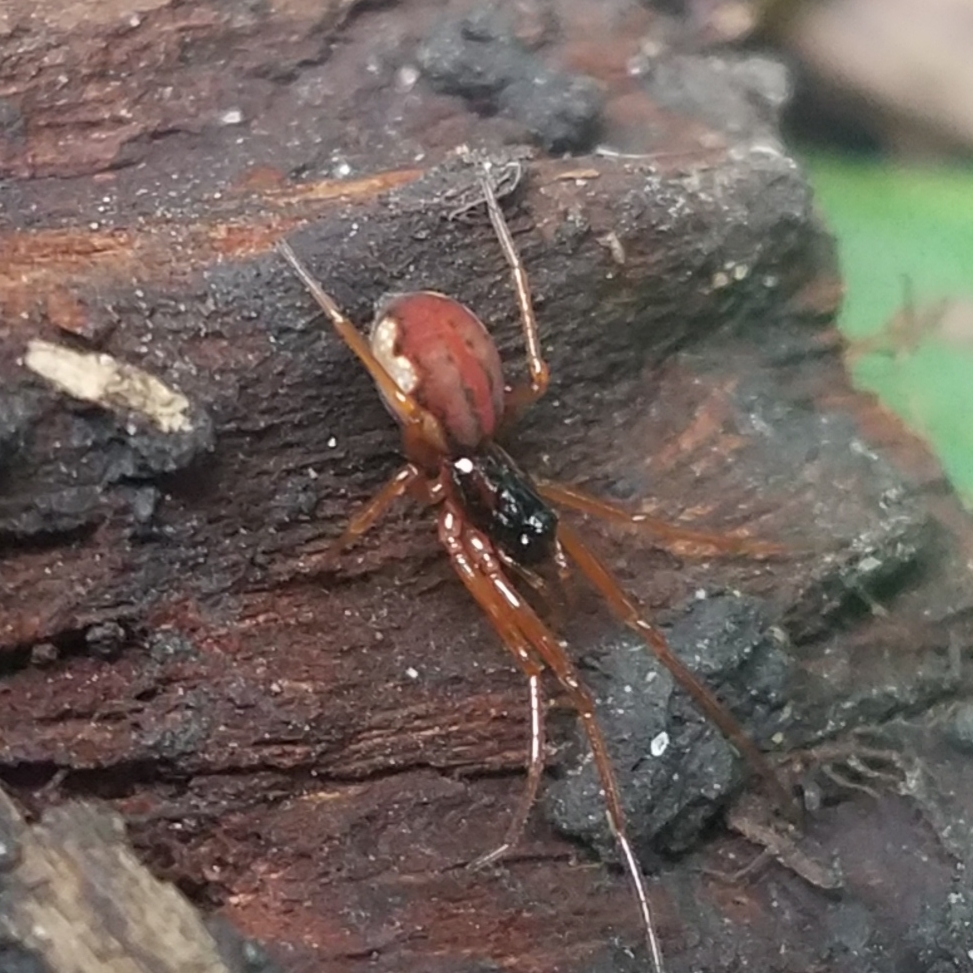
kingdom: Animalia
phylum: Arthropoda
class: Arachnida
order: Araneae
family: Tetragnathidae
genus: Pachygnatha
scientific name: Pachygnatha autumnalis
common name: Big-eyed thick-jawed spider
